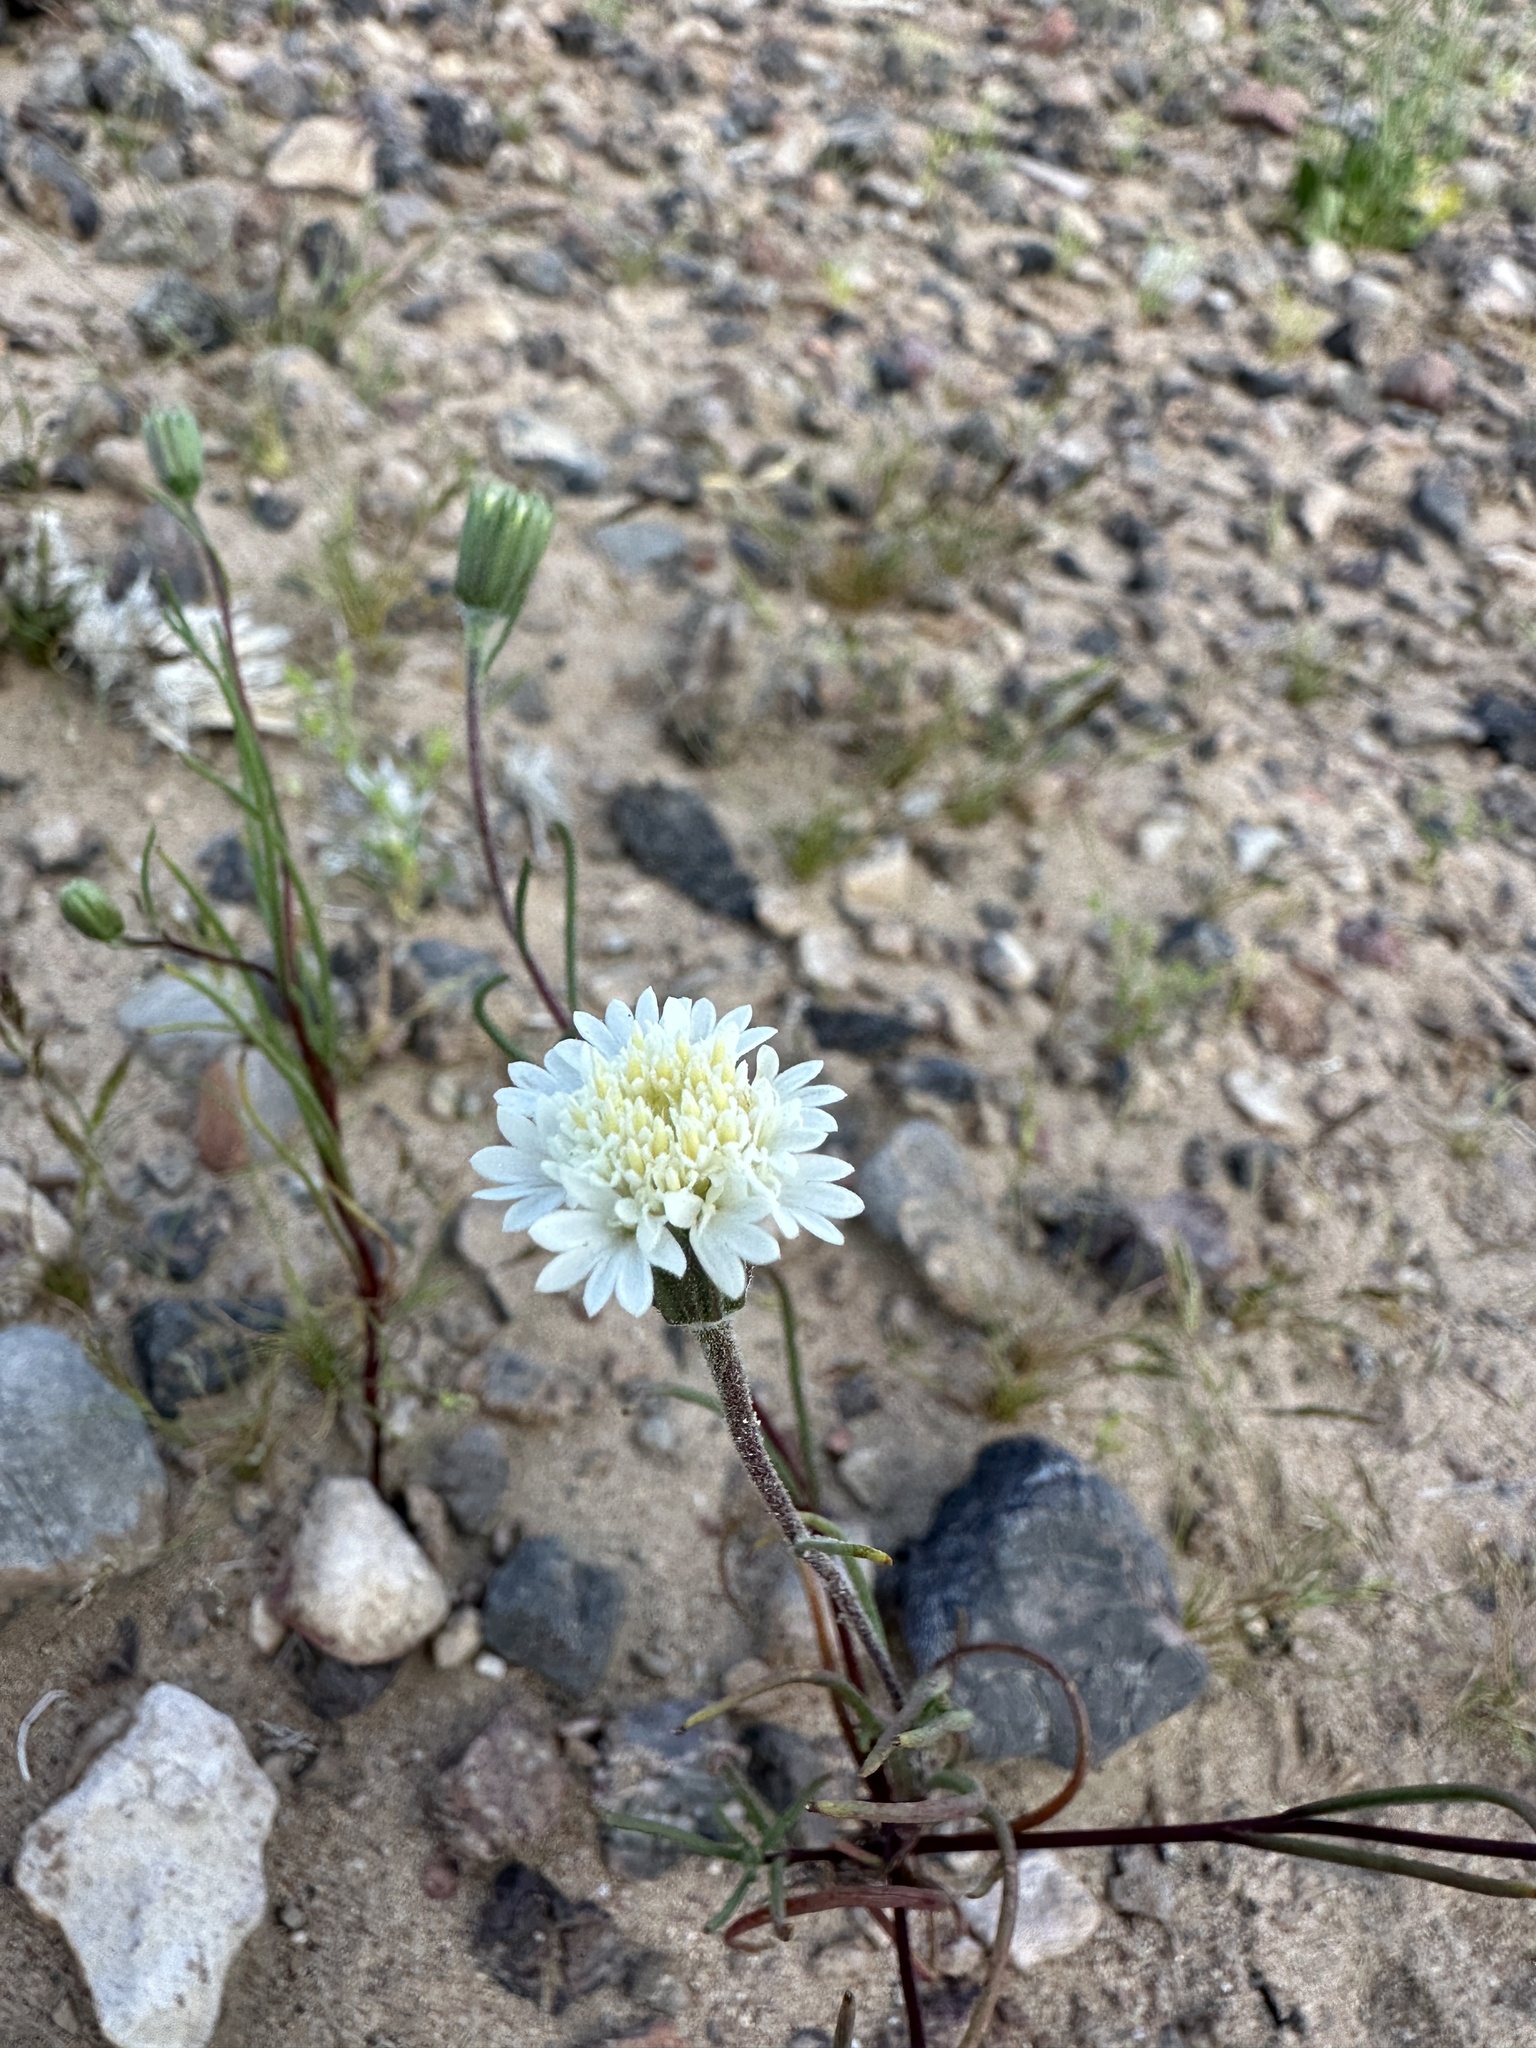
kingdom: Plantae
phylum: Tracheophyta
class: Magnoliopsida
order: Asterales
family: Asteraceae
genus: Chaenactis
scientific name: Chaenactis fremontii
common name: Fremont pincushion
